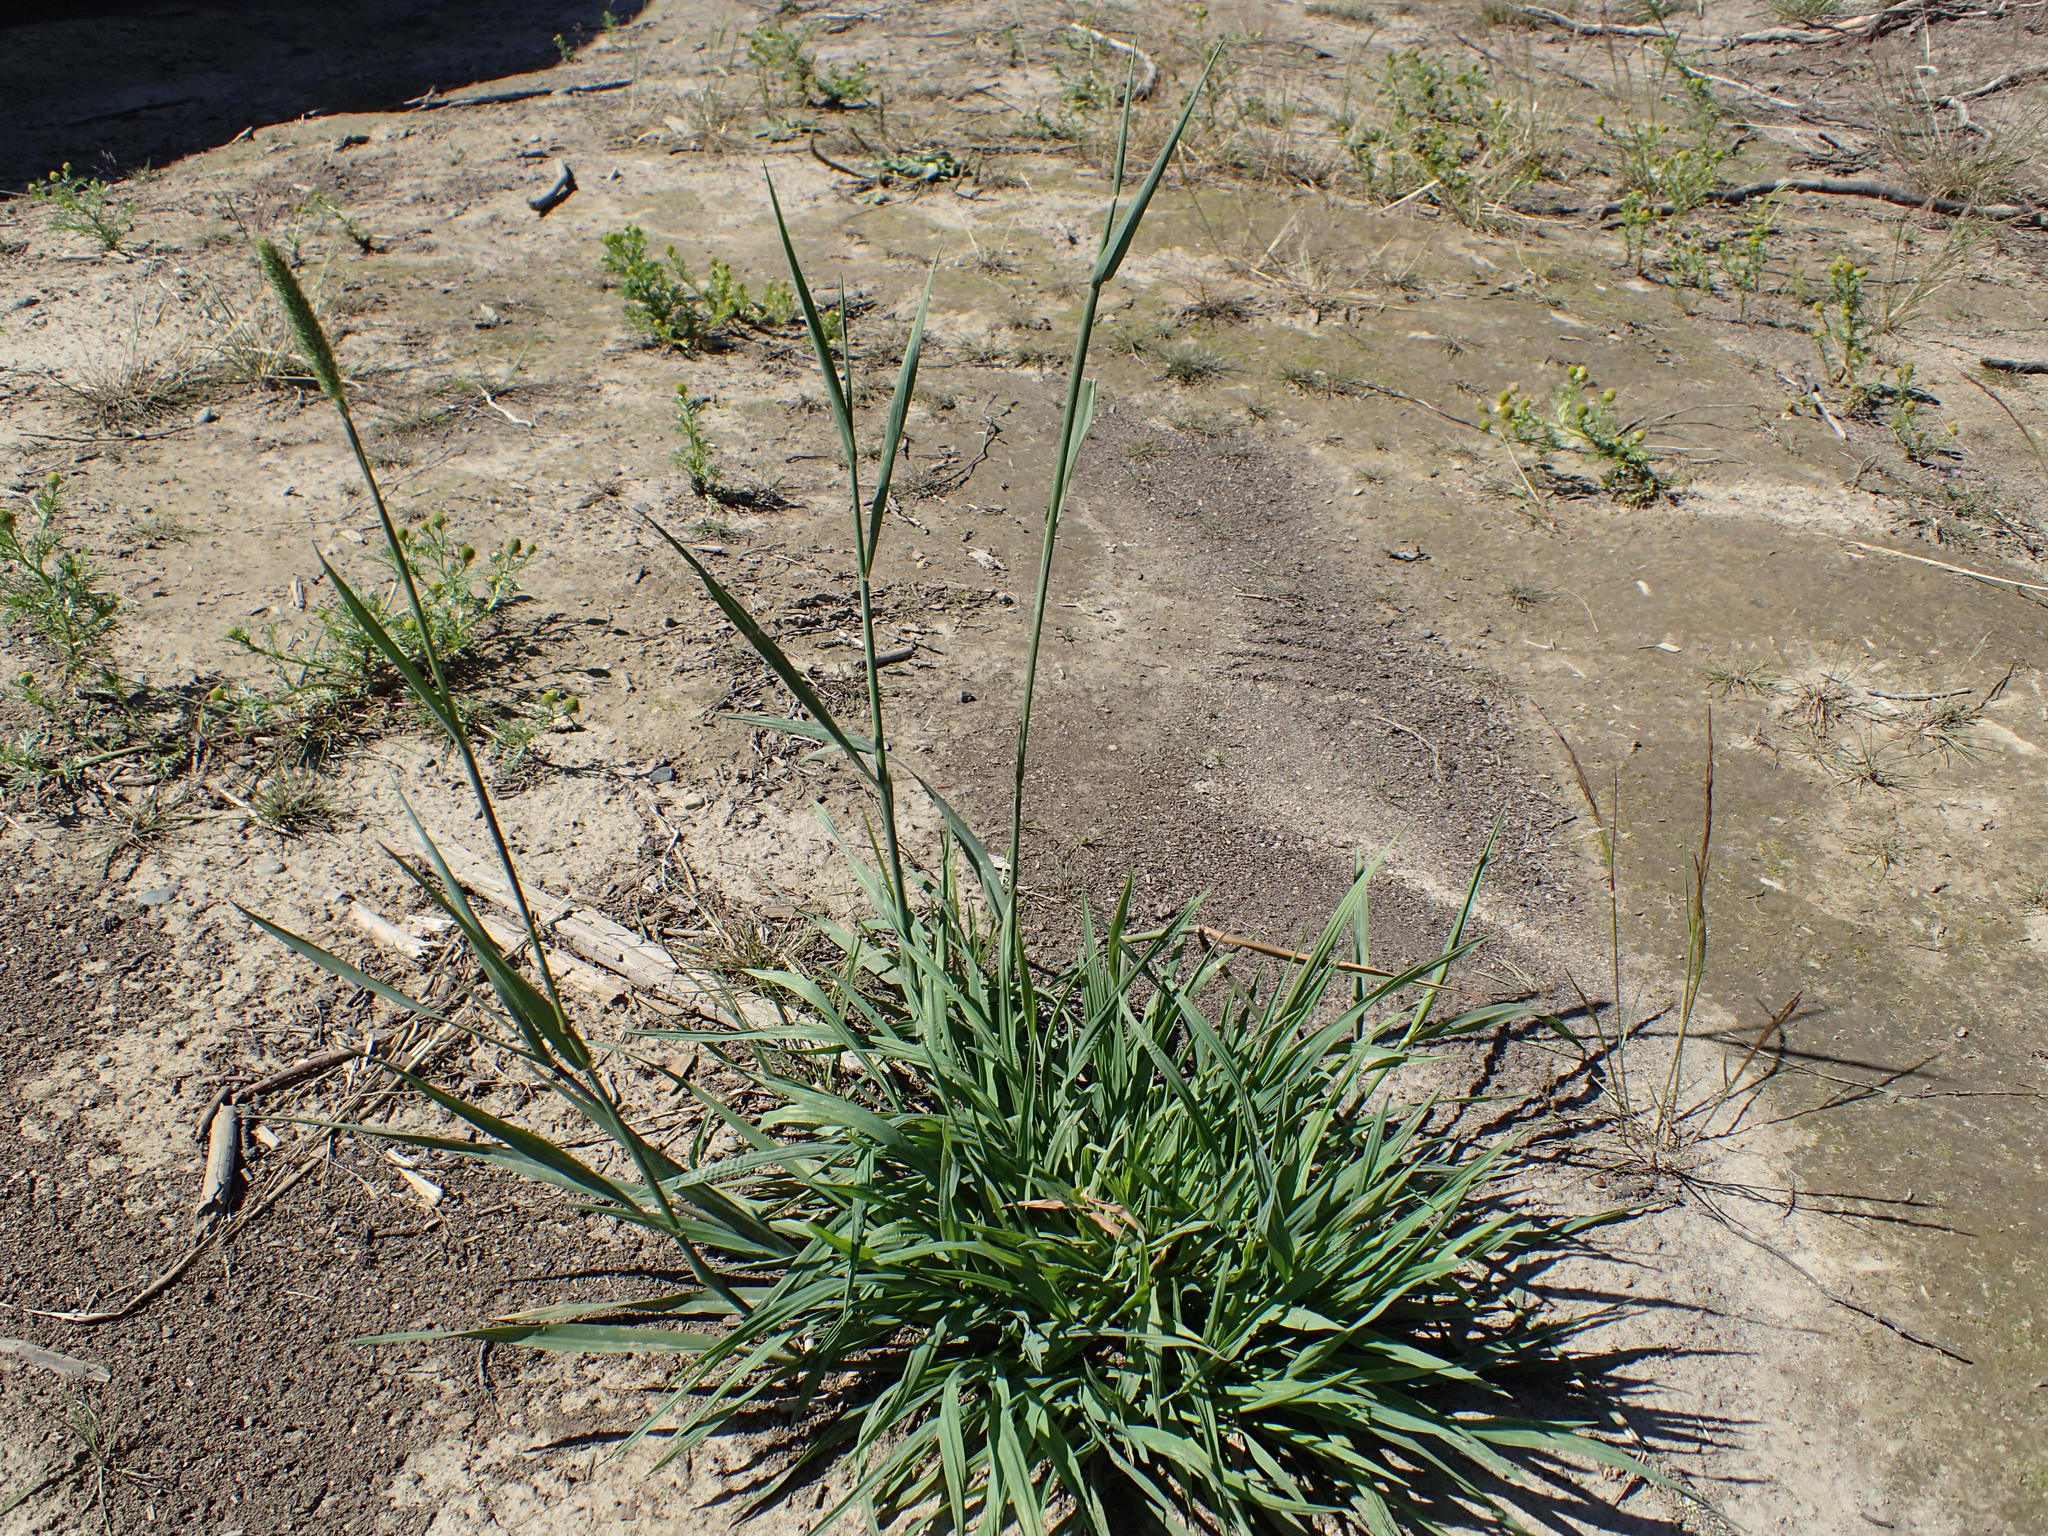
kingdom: Plantae
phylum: Tracheophyta
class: Liliopsida
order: Poales
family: Poaceae
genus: Phleum
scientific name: Phleum pratense
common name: Timothy grass
